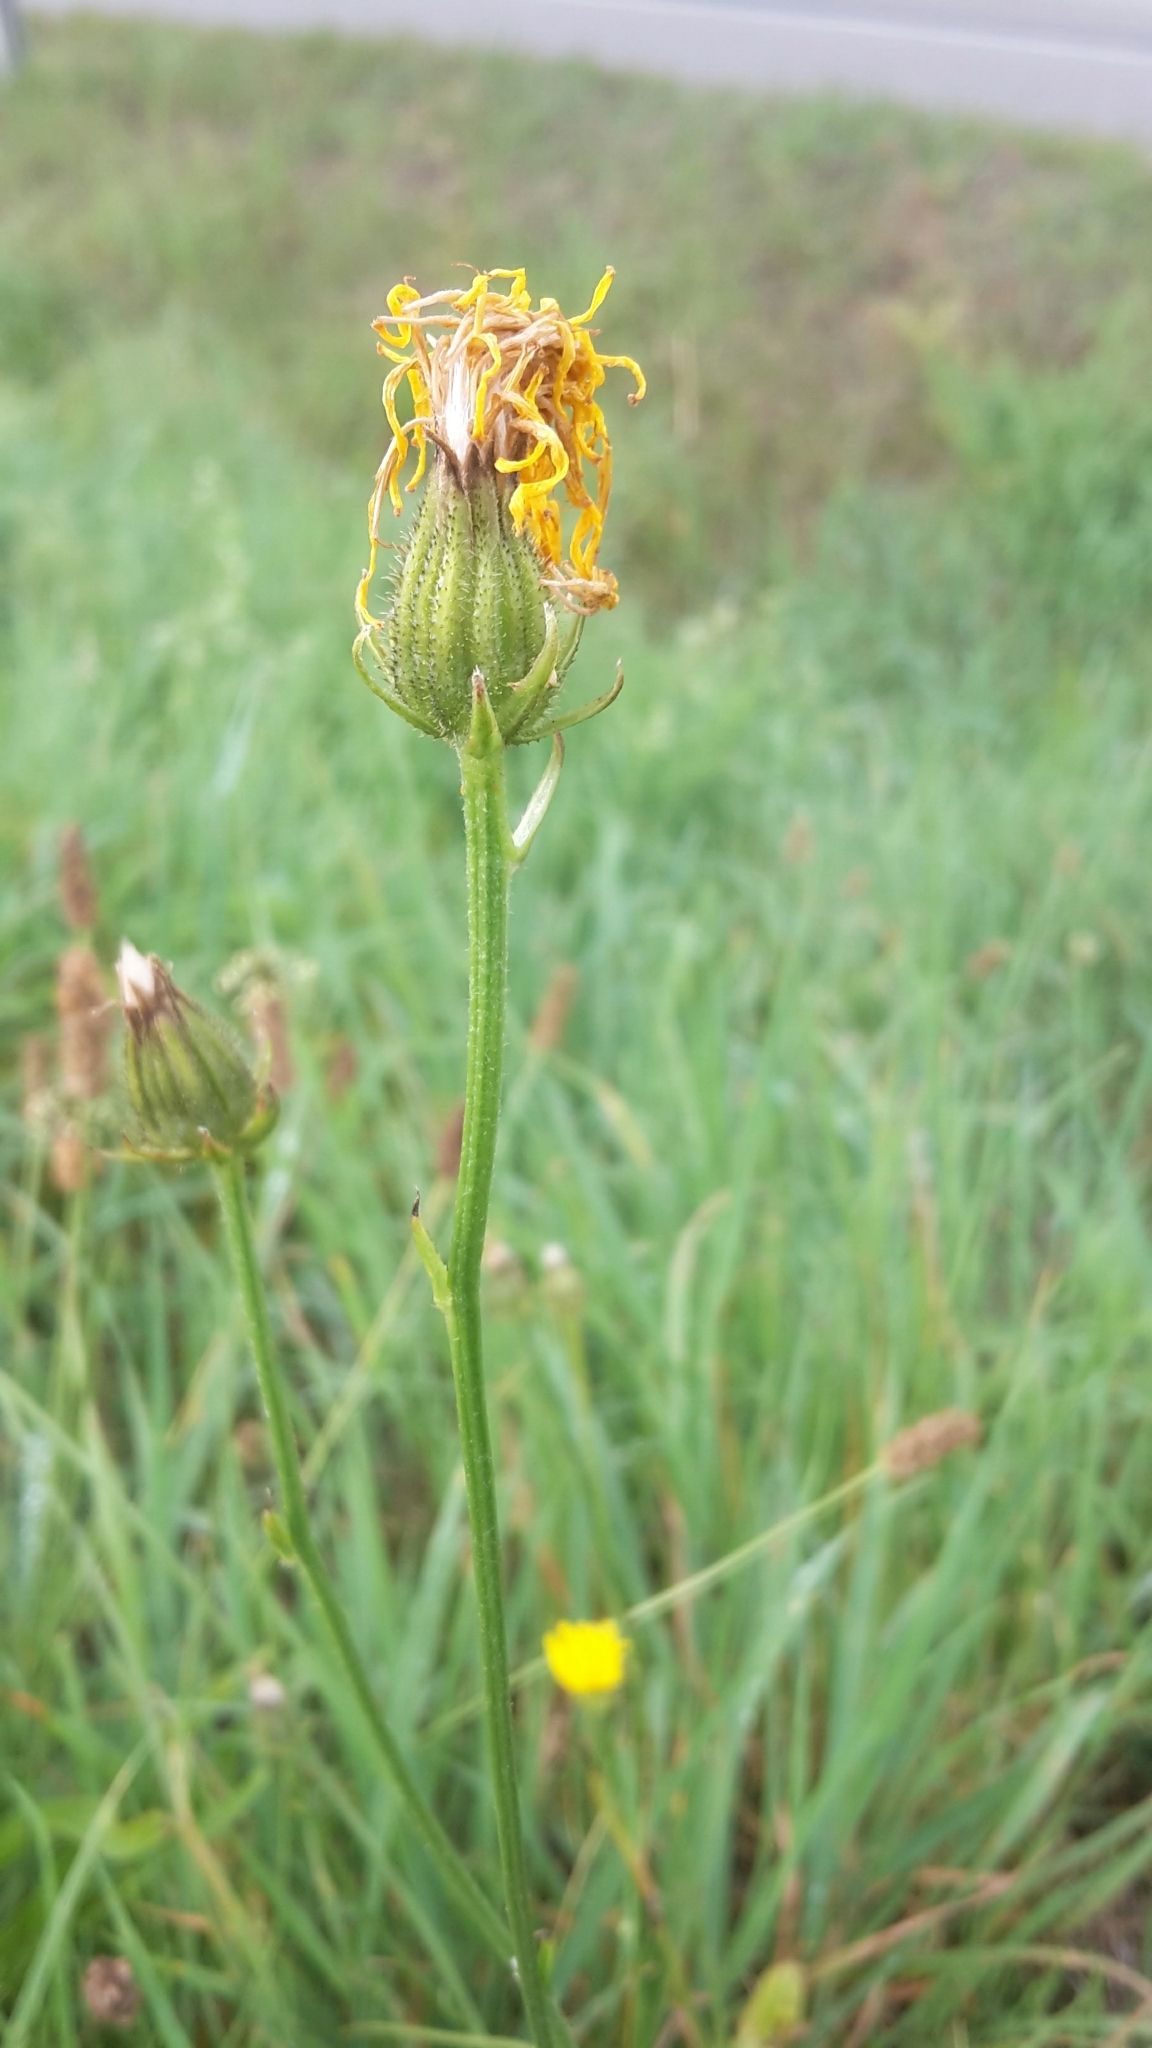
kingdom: Plantae
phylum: Tracheophyta
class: Magnoliopsida
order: Asterales
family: Asteraceae
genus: Crepis
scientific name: Crepis biennis
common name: Rough hawk's-beard
